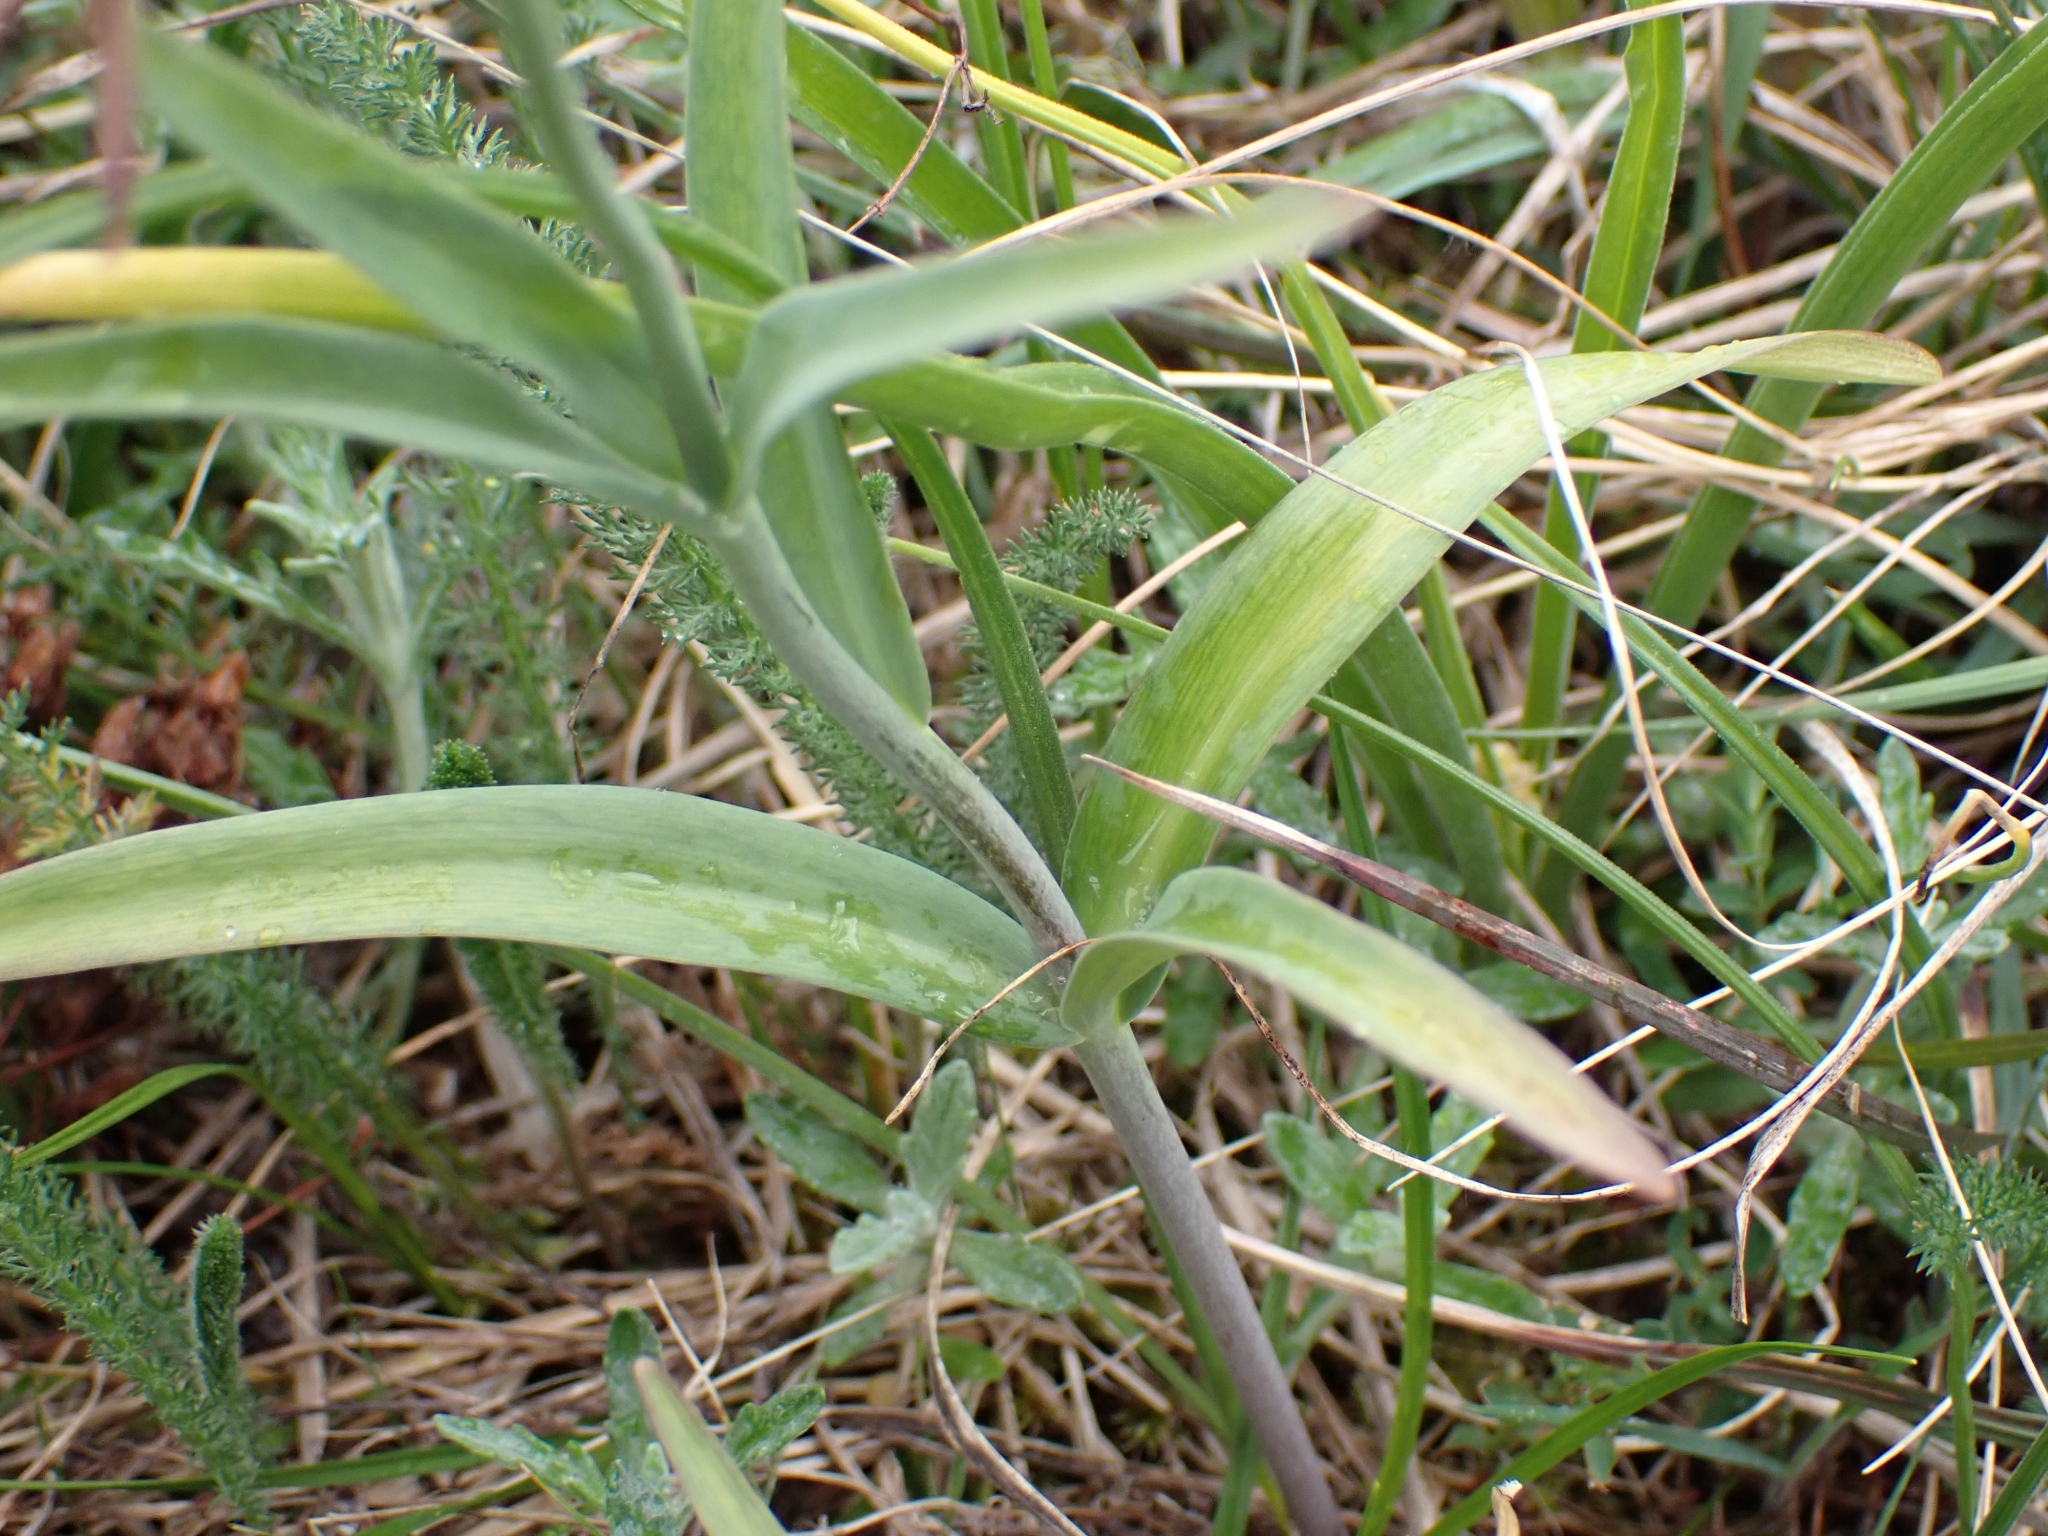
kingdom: Plantae
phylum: Tracheophyta
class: Liliopsida
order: Liliales
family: Liliaceae
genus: Fritillaria
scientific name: Fritillaria affinis
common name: Ojai fritillary
